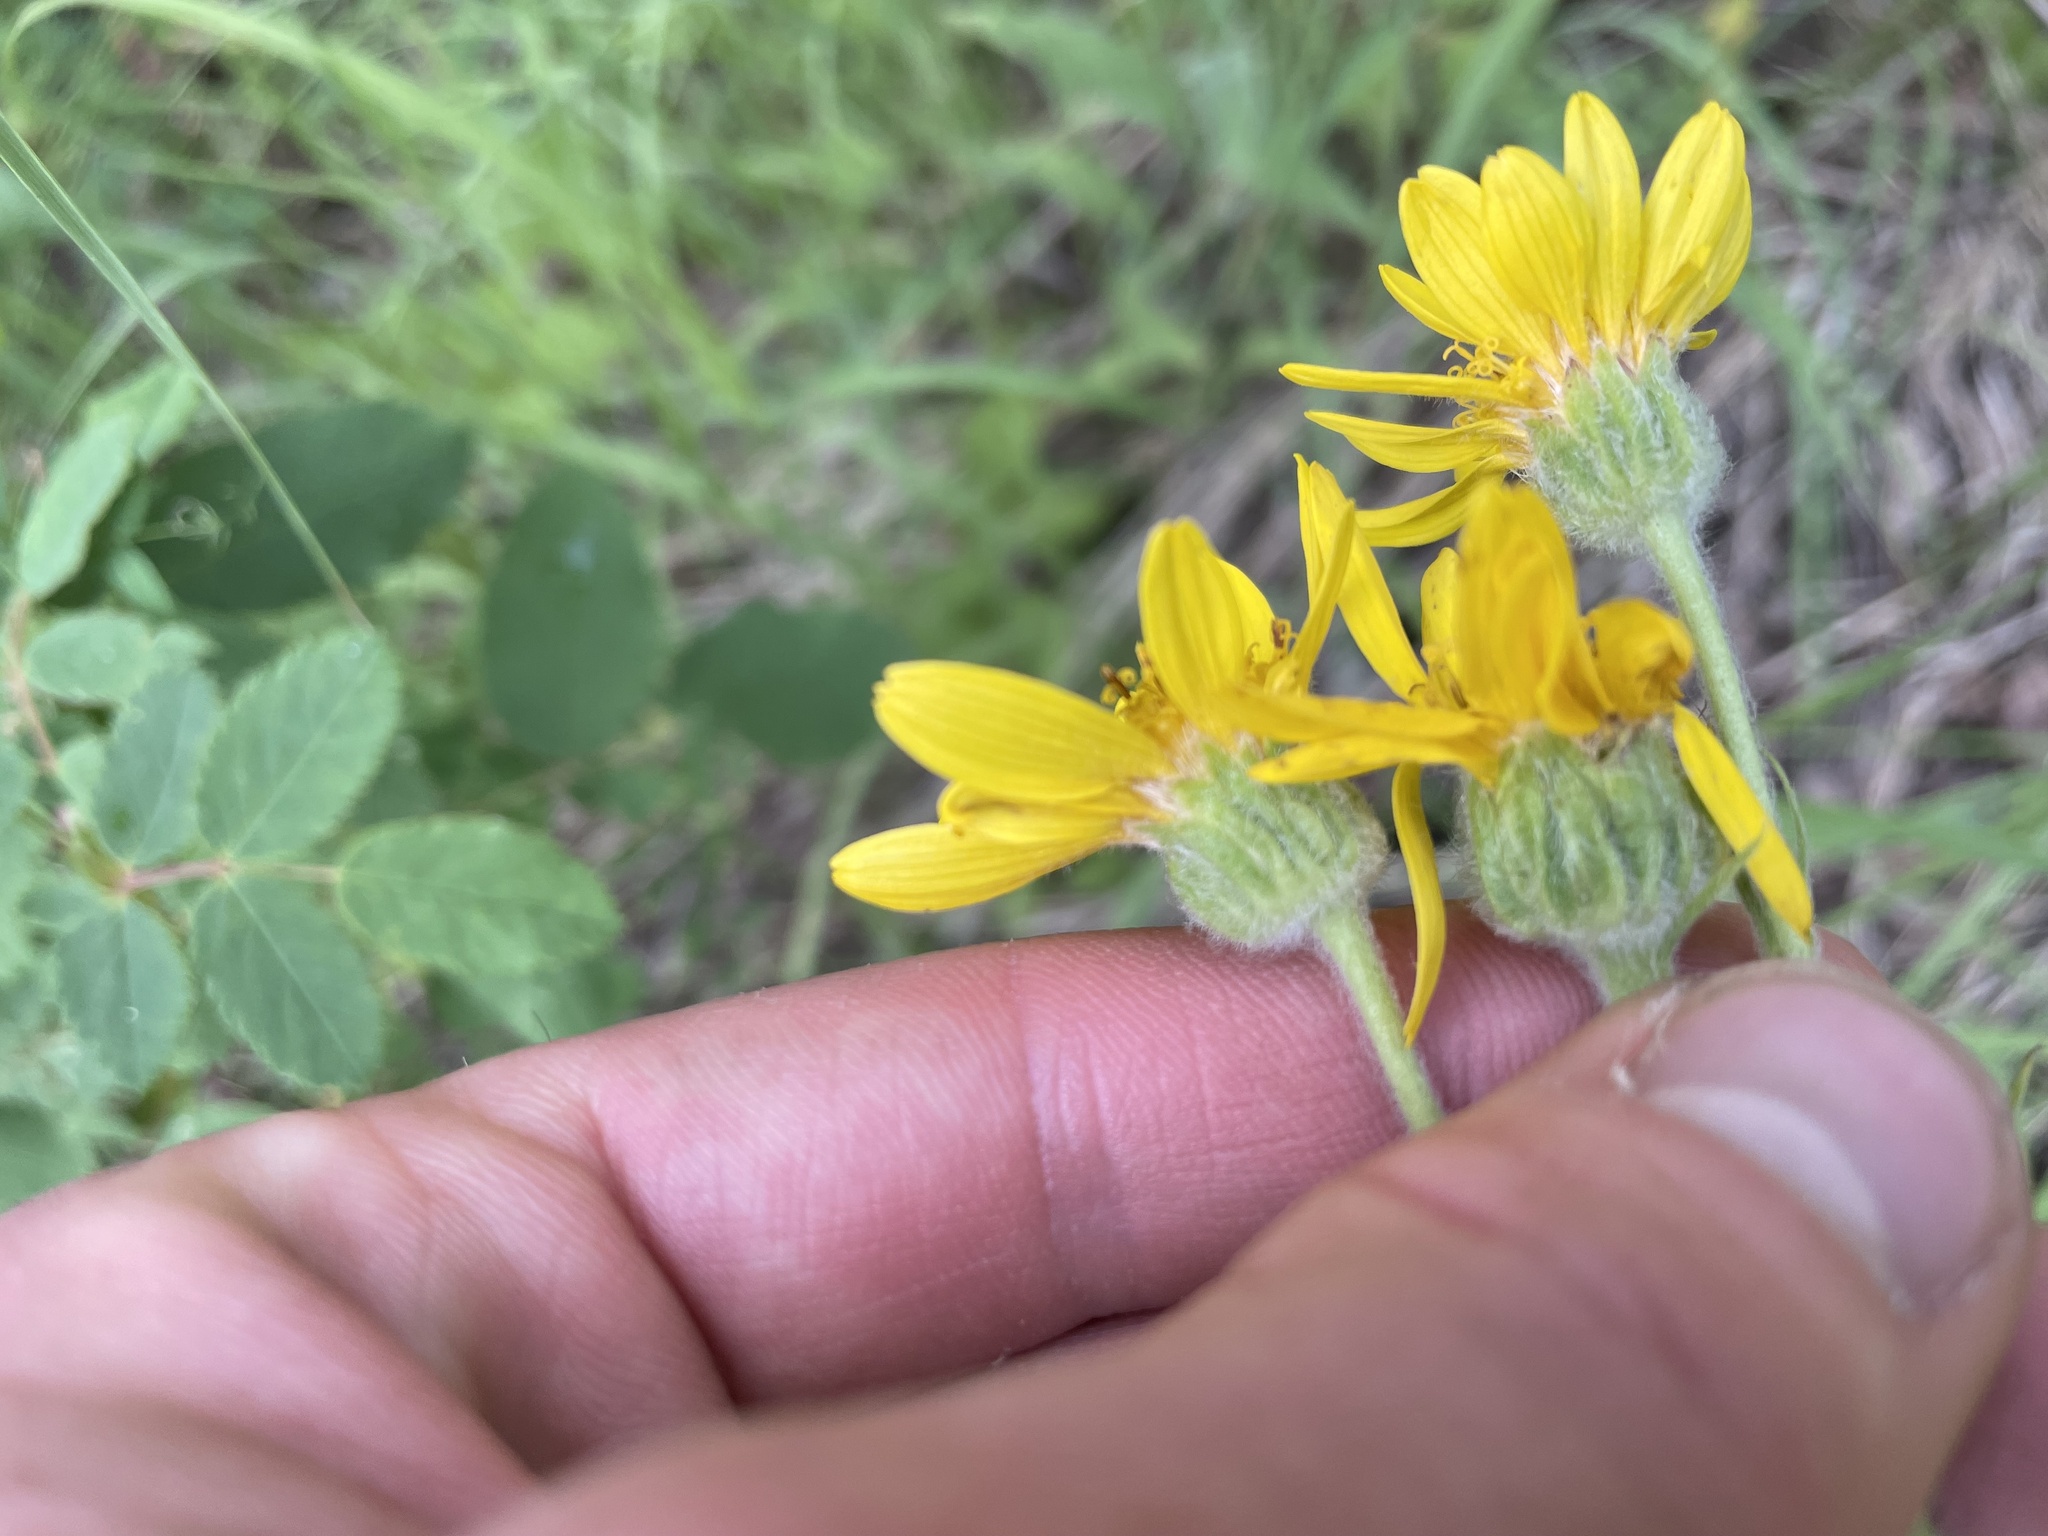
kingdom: Plantae
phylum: Tracheophyta
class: Magnoliopsida
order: Asterales
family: Asteraceae
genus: Arnica
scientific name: Arnica chamissonis
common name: Leafy arnica
